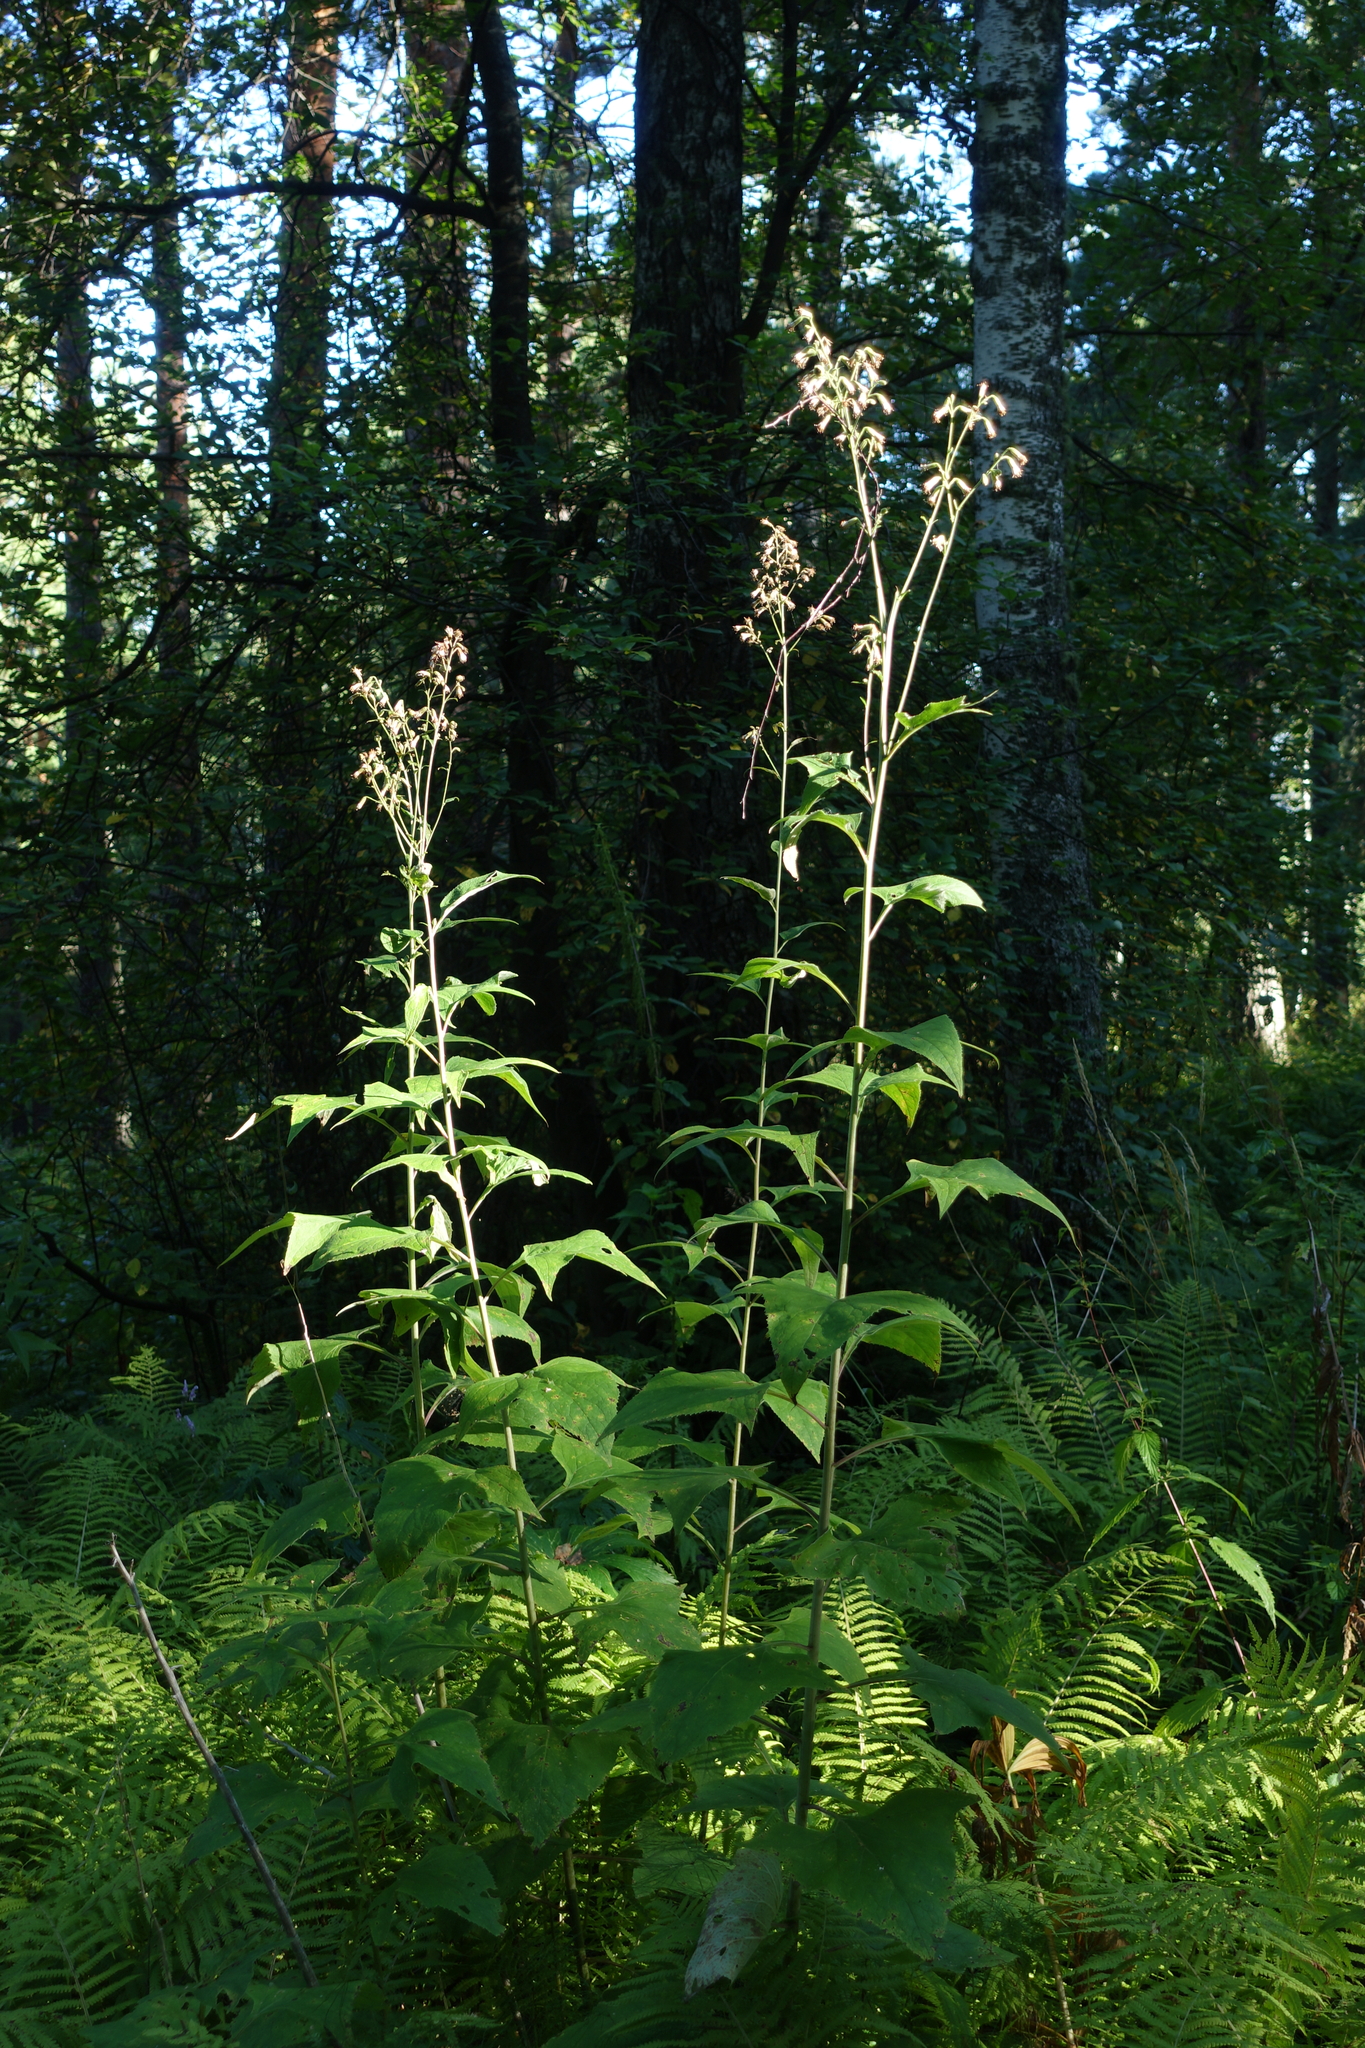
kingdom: Plantae
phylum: Tracheophyta
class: Magnoliopsida
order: Asterales
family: Asteraceae
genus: Parasenecio
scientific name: Parasenecio hastatus
